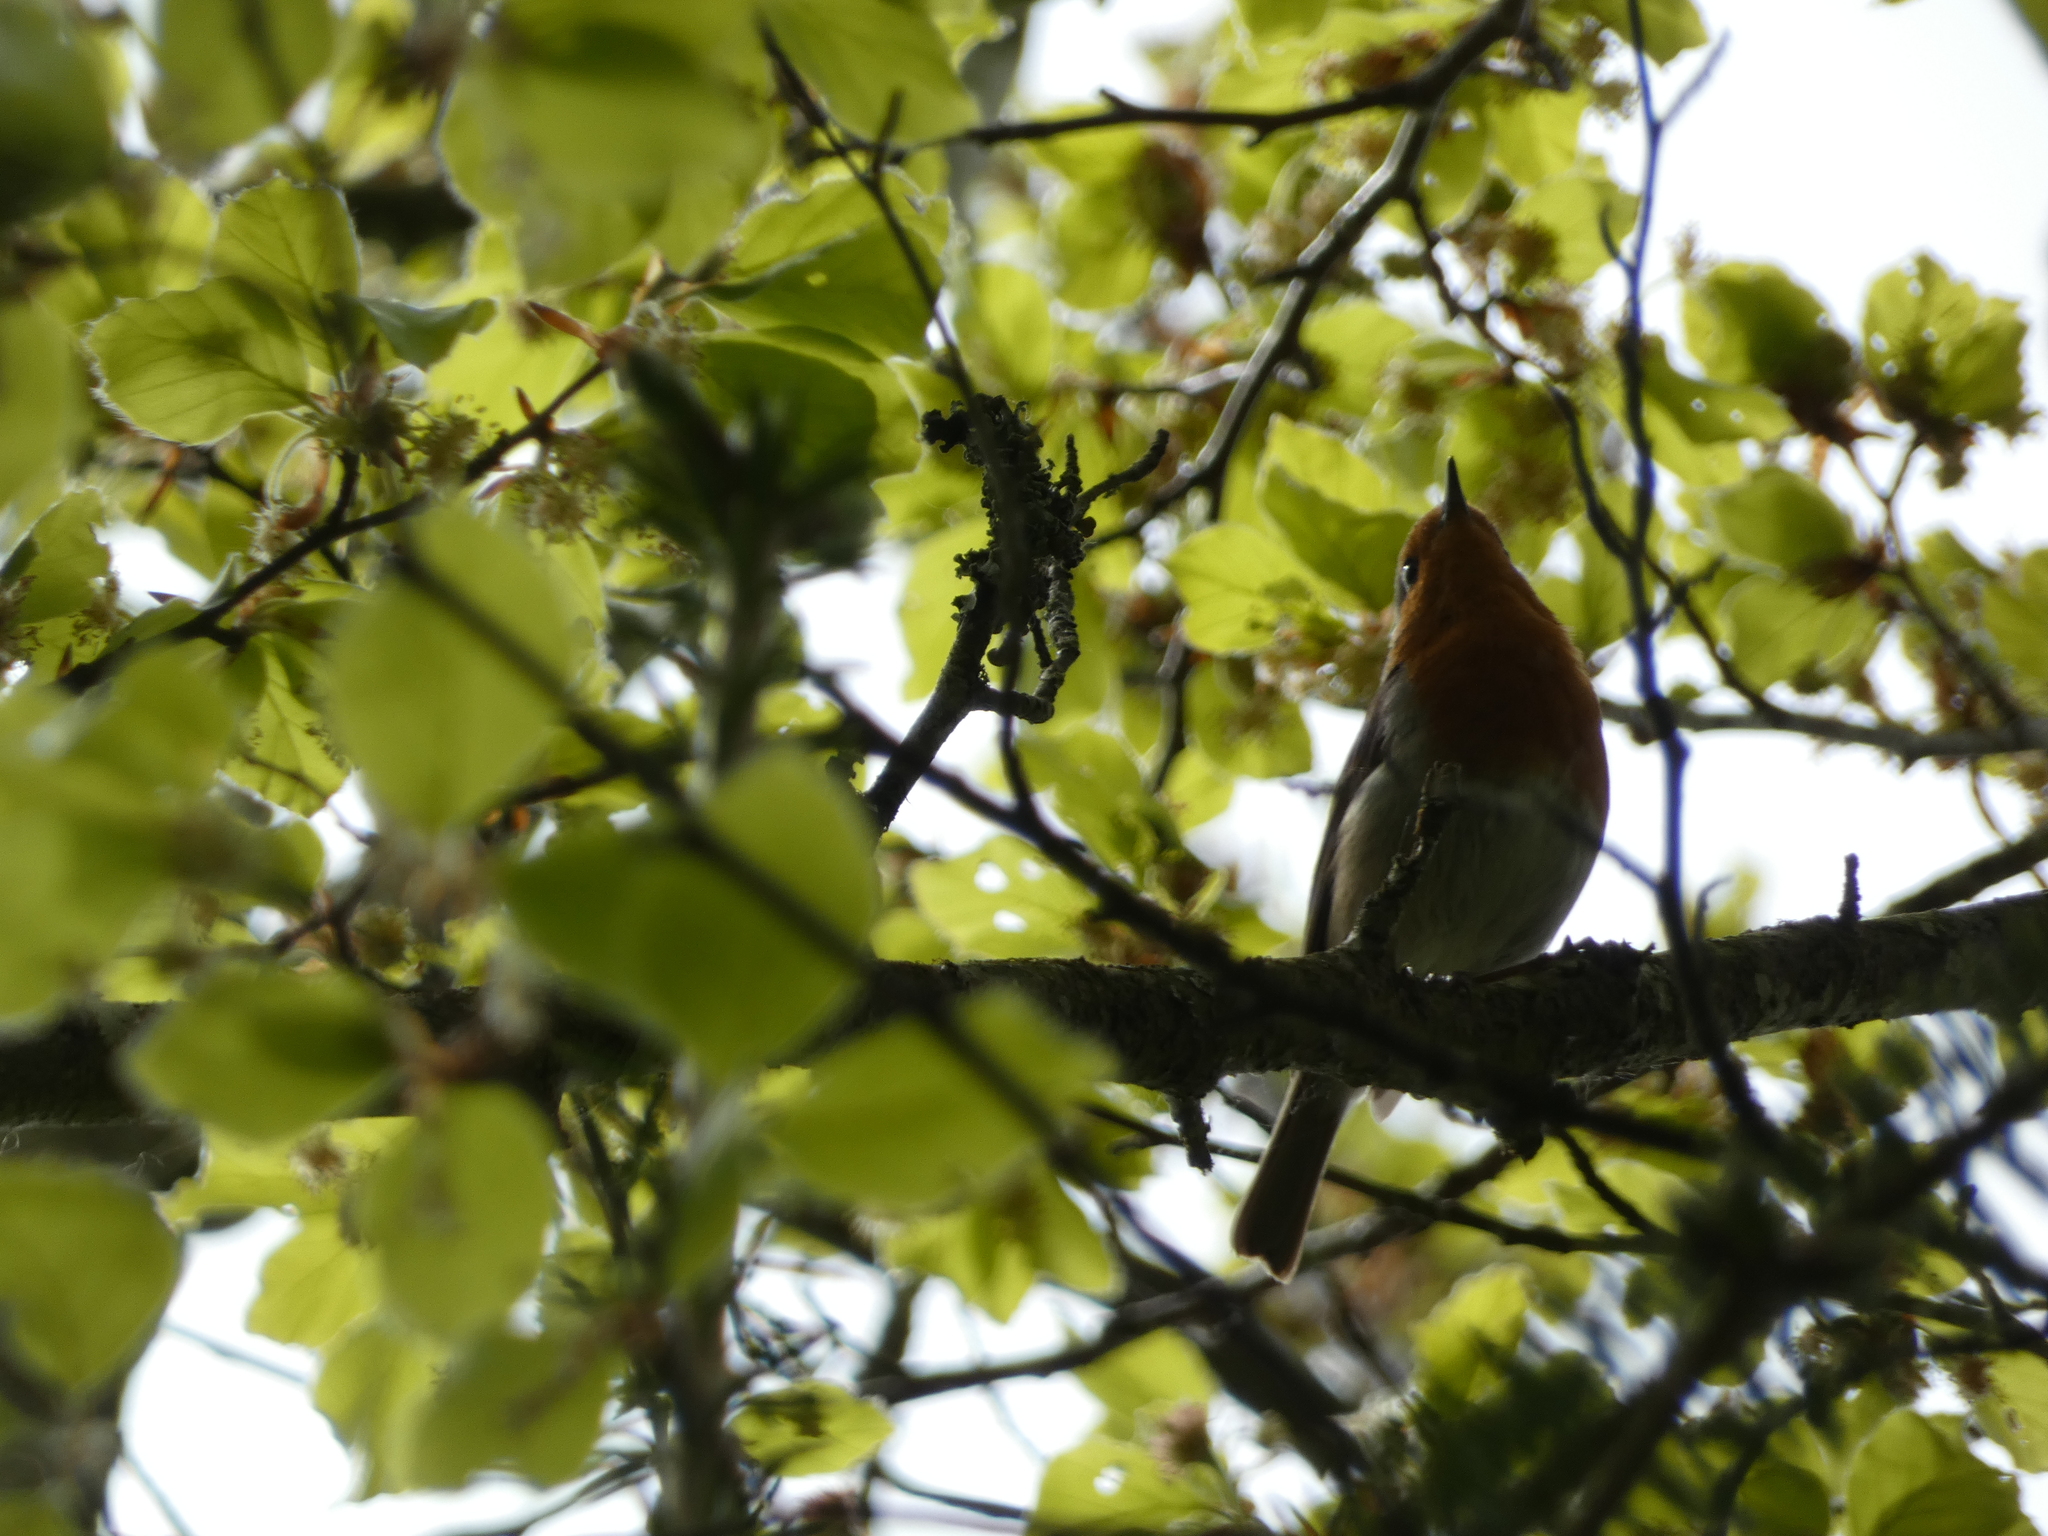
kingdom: Animalia
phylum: Chordata
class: Aves
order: Passeriformes
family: Muscicapidae
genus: Erithacus
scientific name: Erithacus rubecula
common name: European robin
